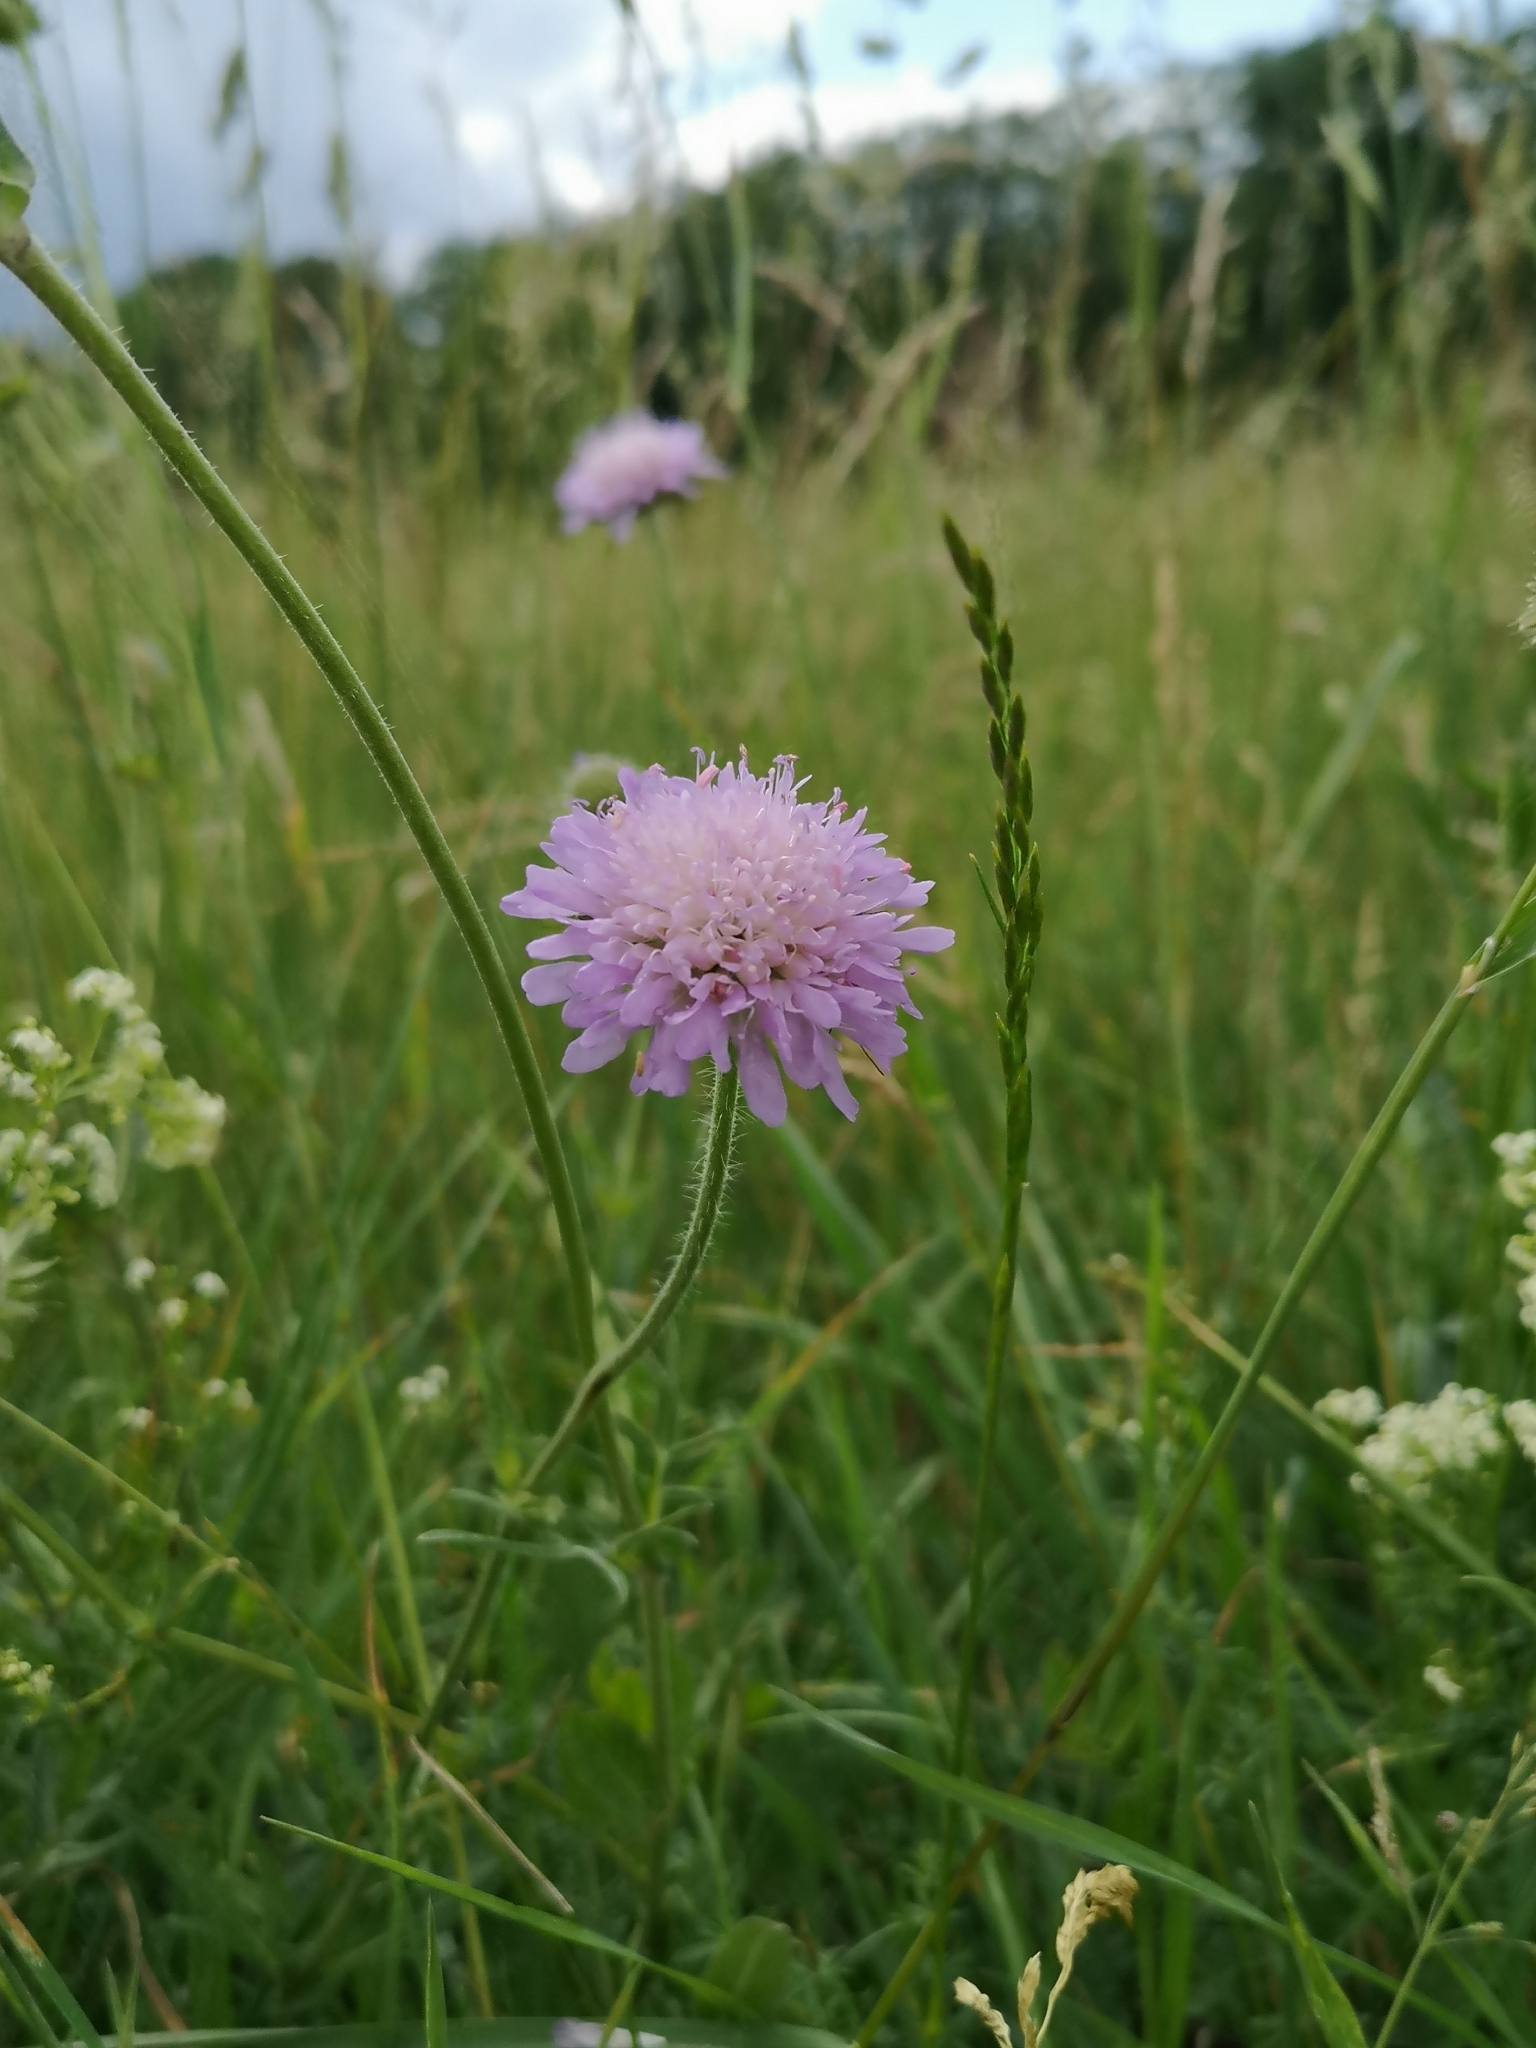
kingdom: Plantae
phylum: Tracheophyta
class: Magnoliopsida
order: Dipsacales
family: Caprifoliaceae
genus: Knautia
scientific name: Knautia arvensis
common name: Field scabiosa
